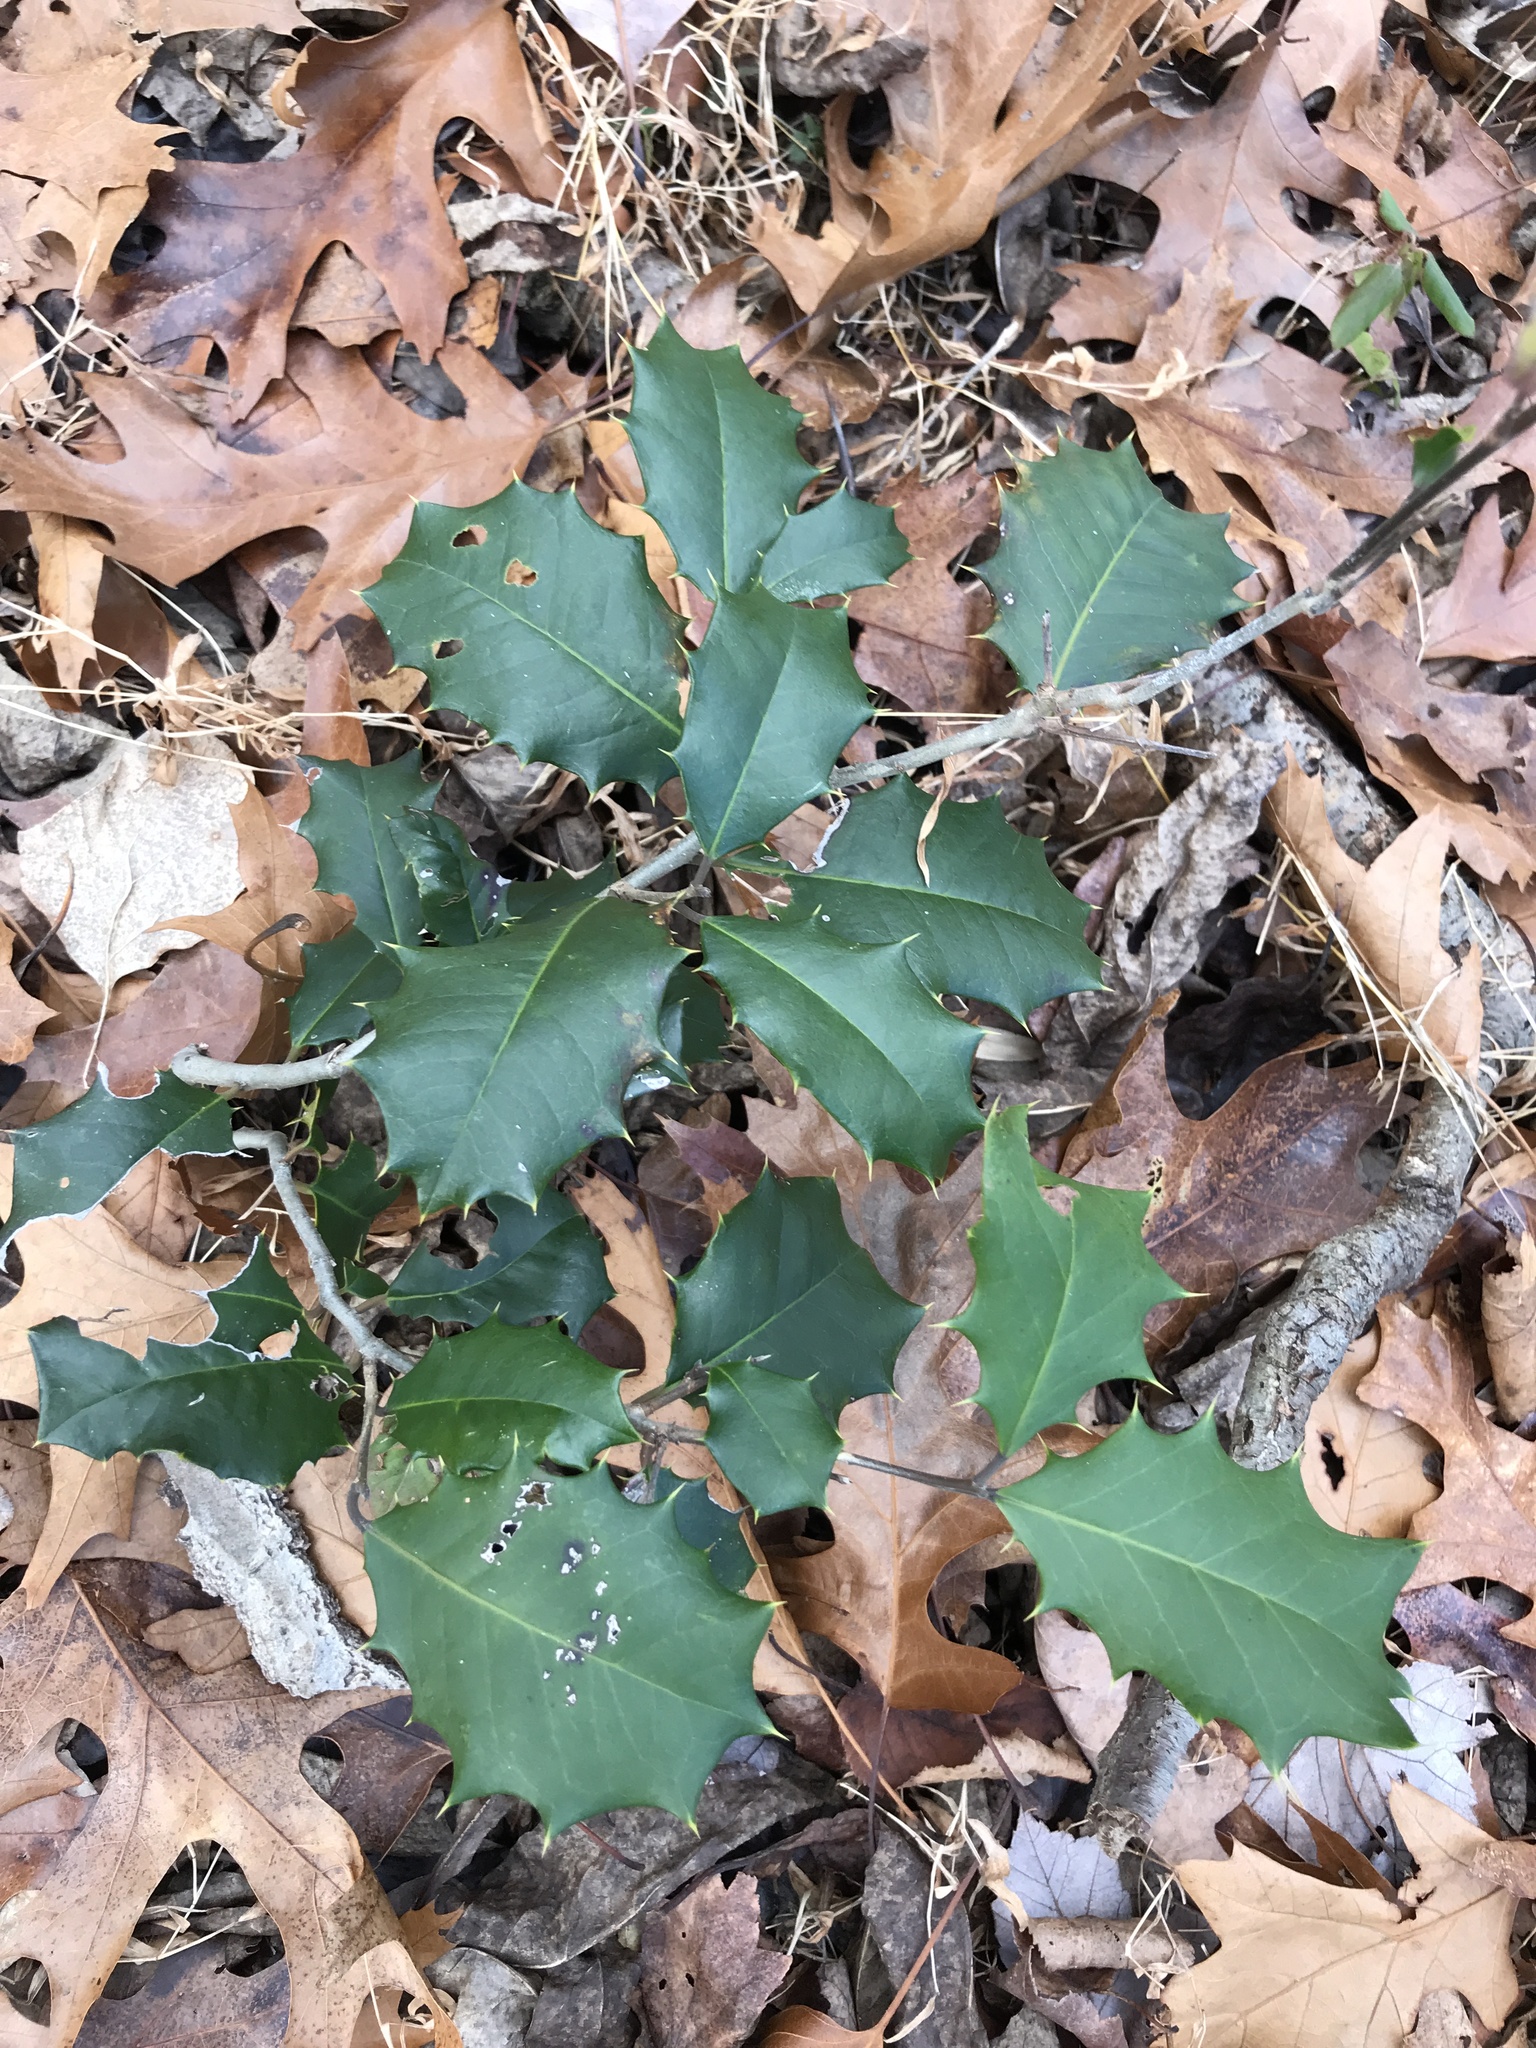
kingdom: Plantae
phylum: Tracheophyta
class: Magnoliopsida
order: Aquifoliales
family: Aquifoliaceae
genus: Ilex
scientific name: Ilex opaca
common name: American holly
